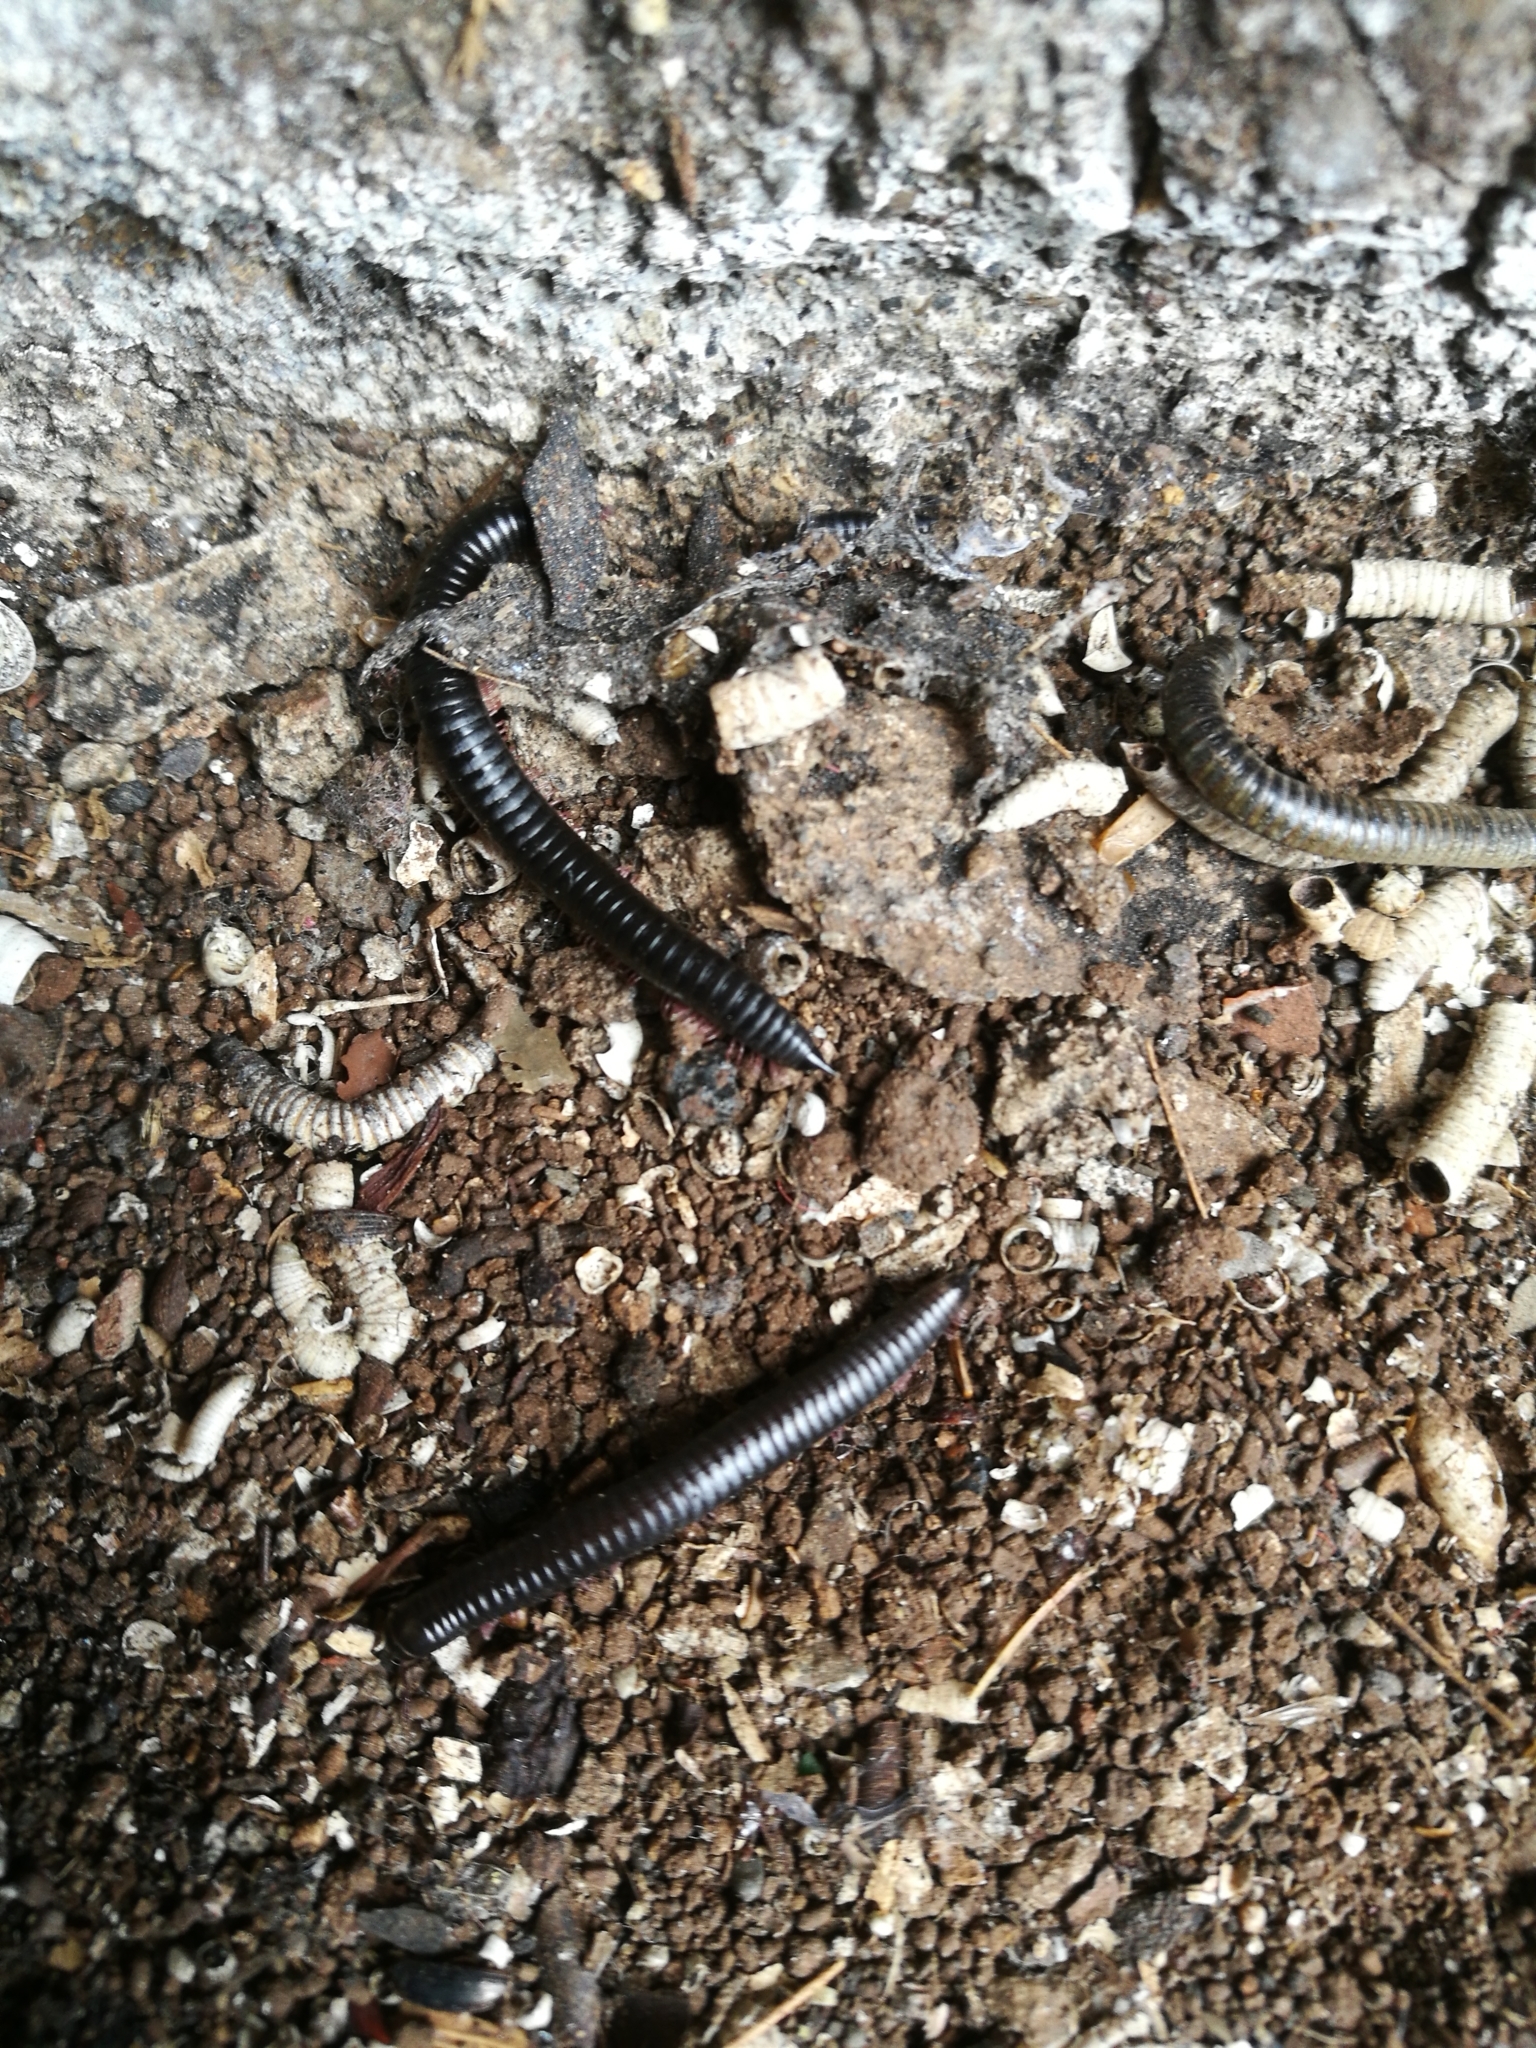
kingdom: Animalia
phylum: Arthropoda
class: Diplopoda
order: Julida
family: Julidae
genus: Ommatoiulus
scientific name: Ommatoiulus moreleti
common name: Portuguese millipede
